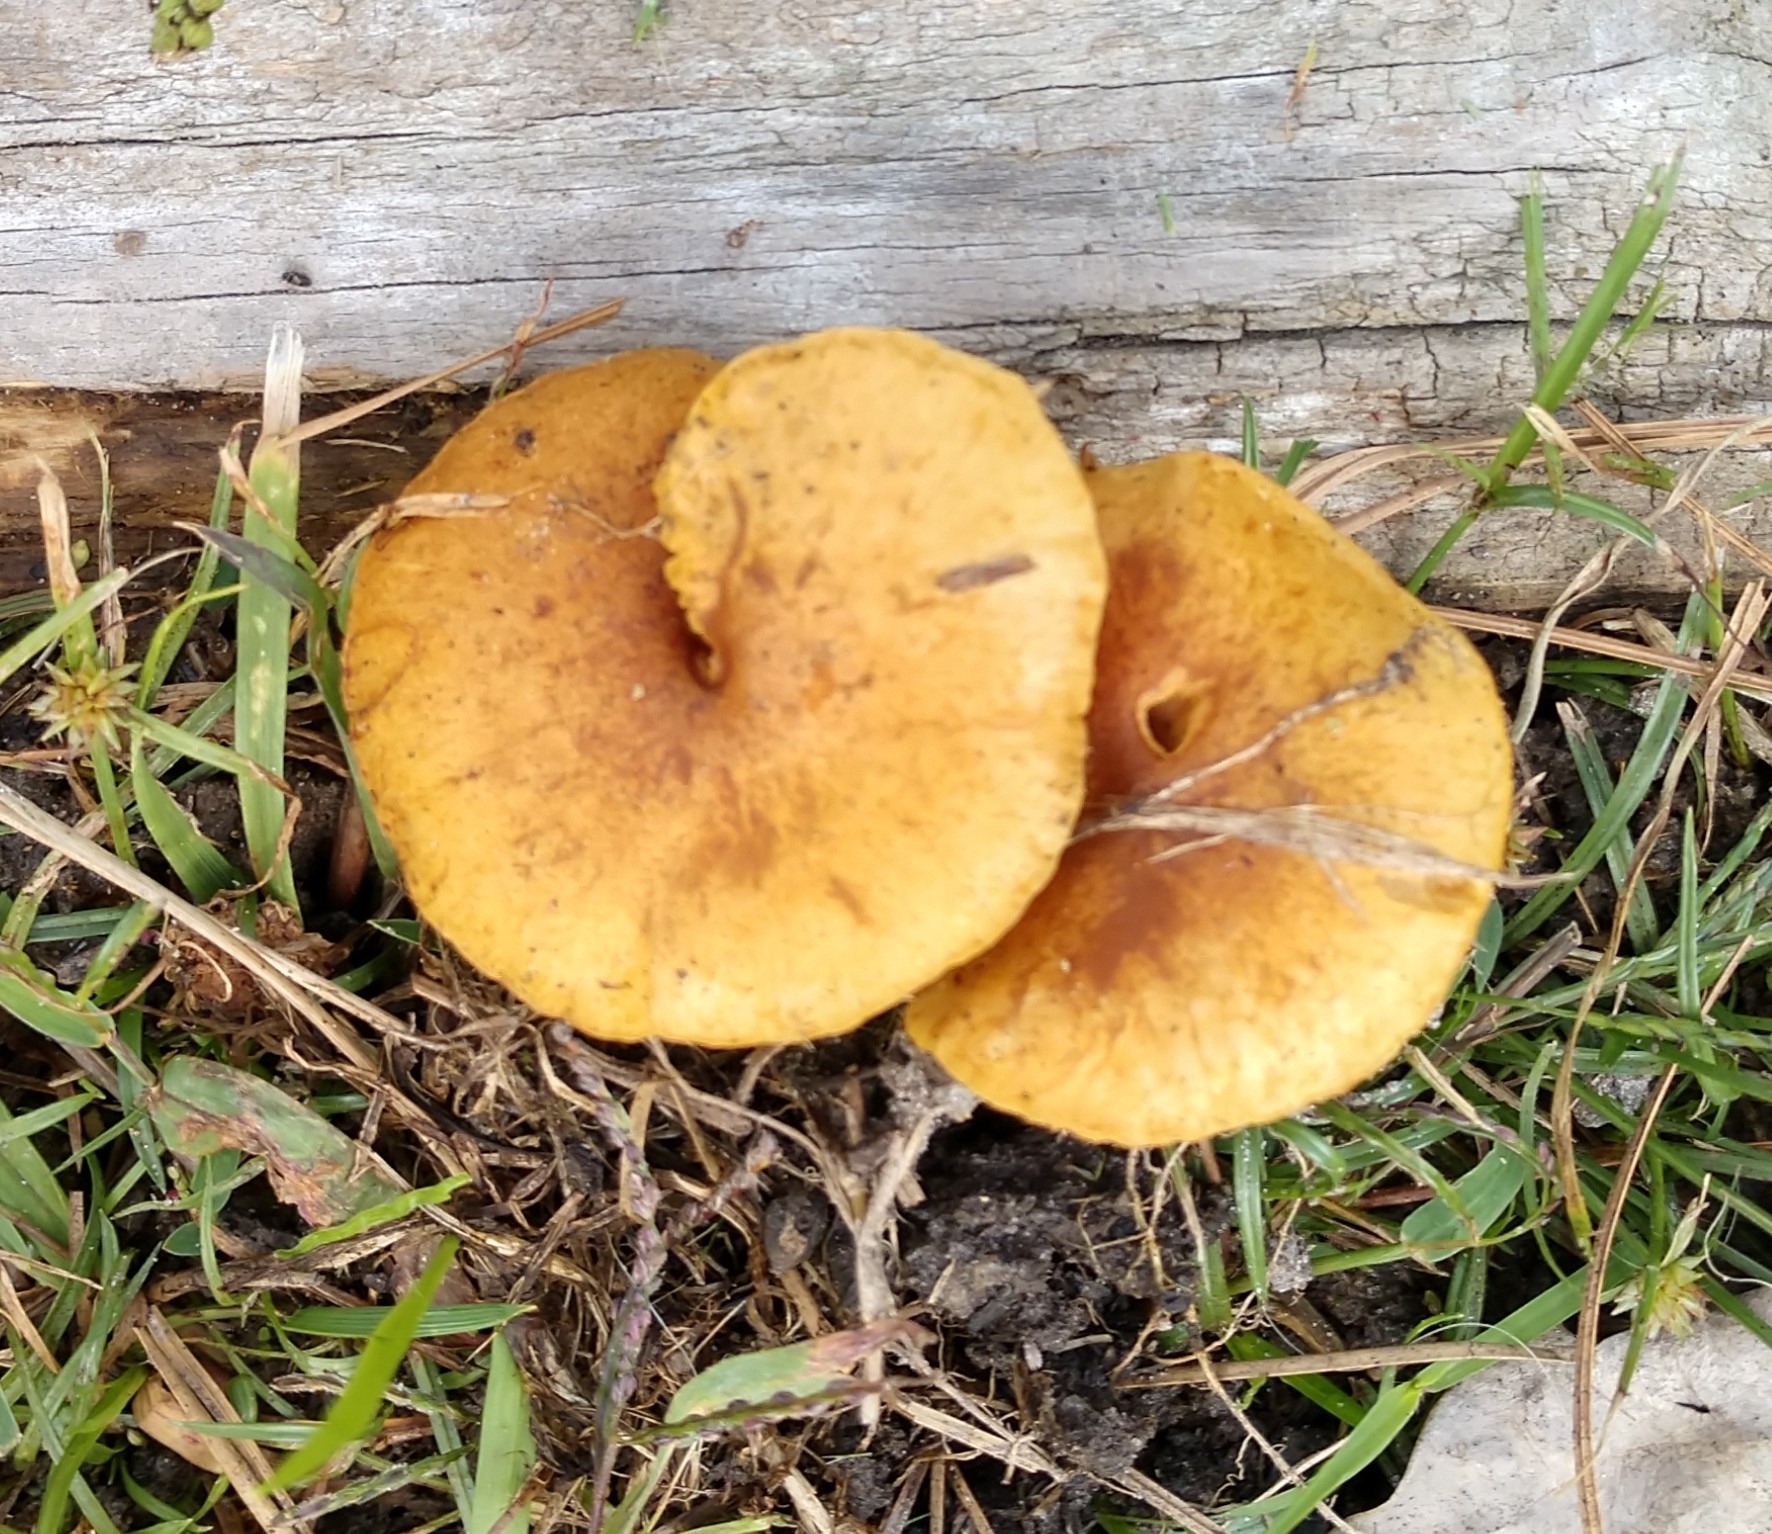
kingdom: Fungi
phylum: Basidiomycota
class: Agaricomycetes
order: Agaricales
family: Hymenogastraceae
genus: Gymnopilus
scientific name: Gymnopilus sapineus
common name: Scaly rustgill
